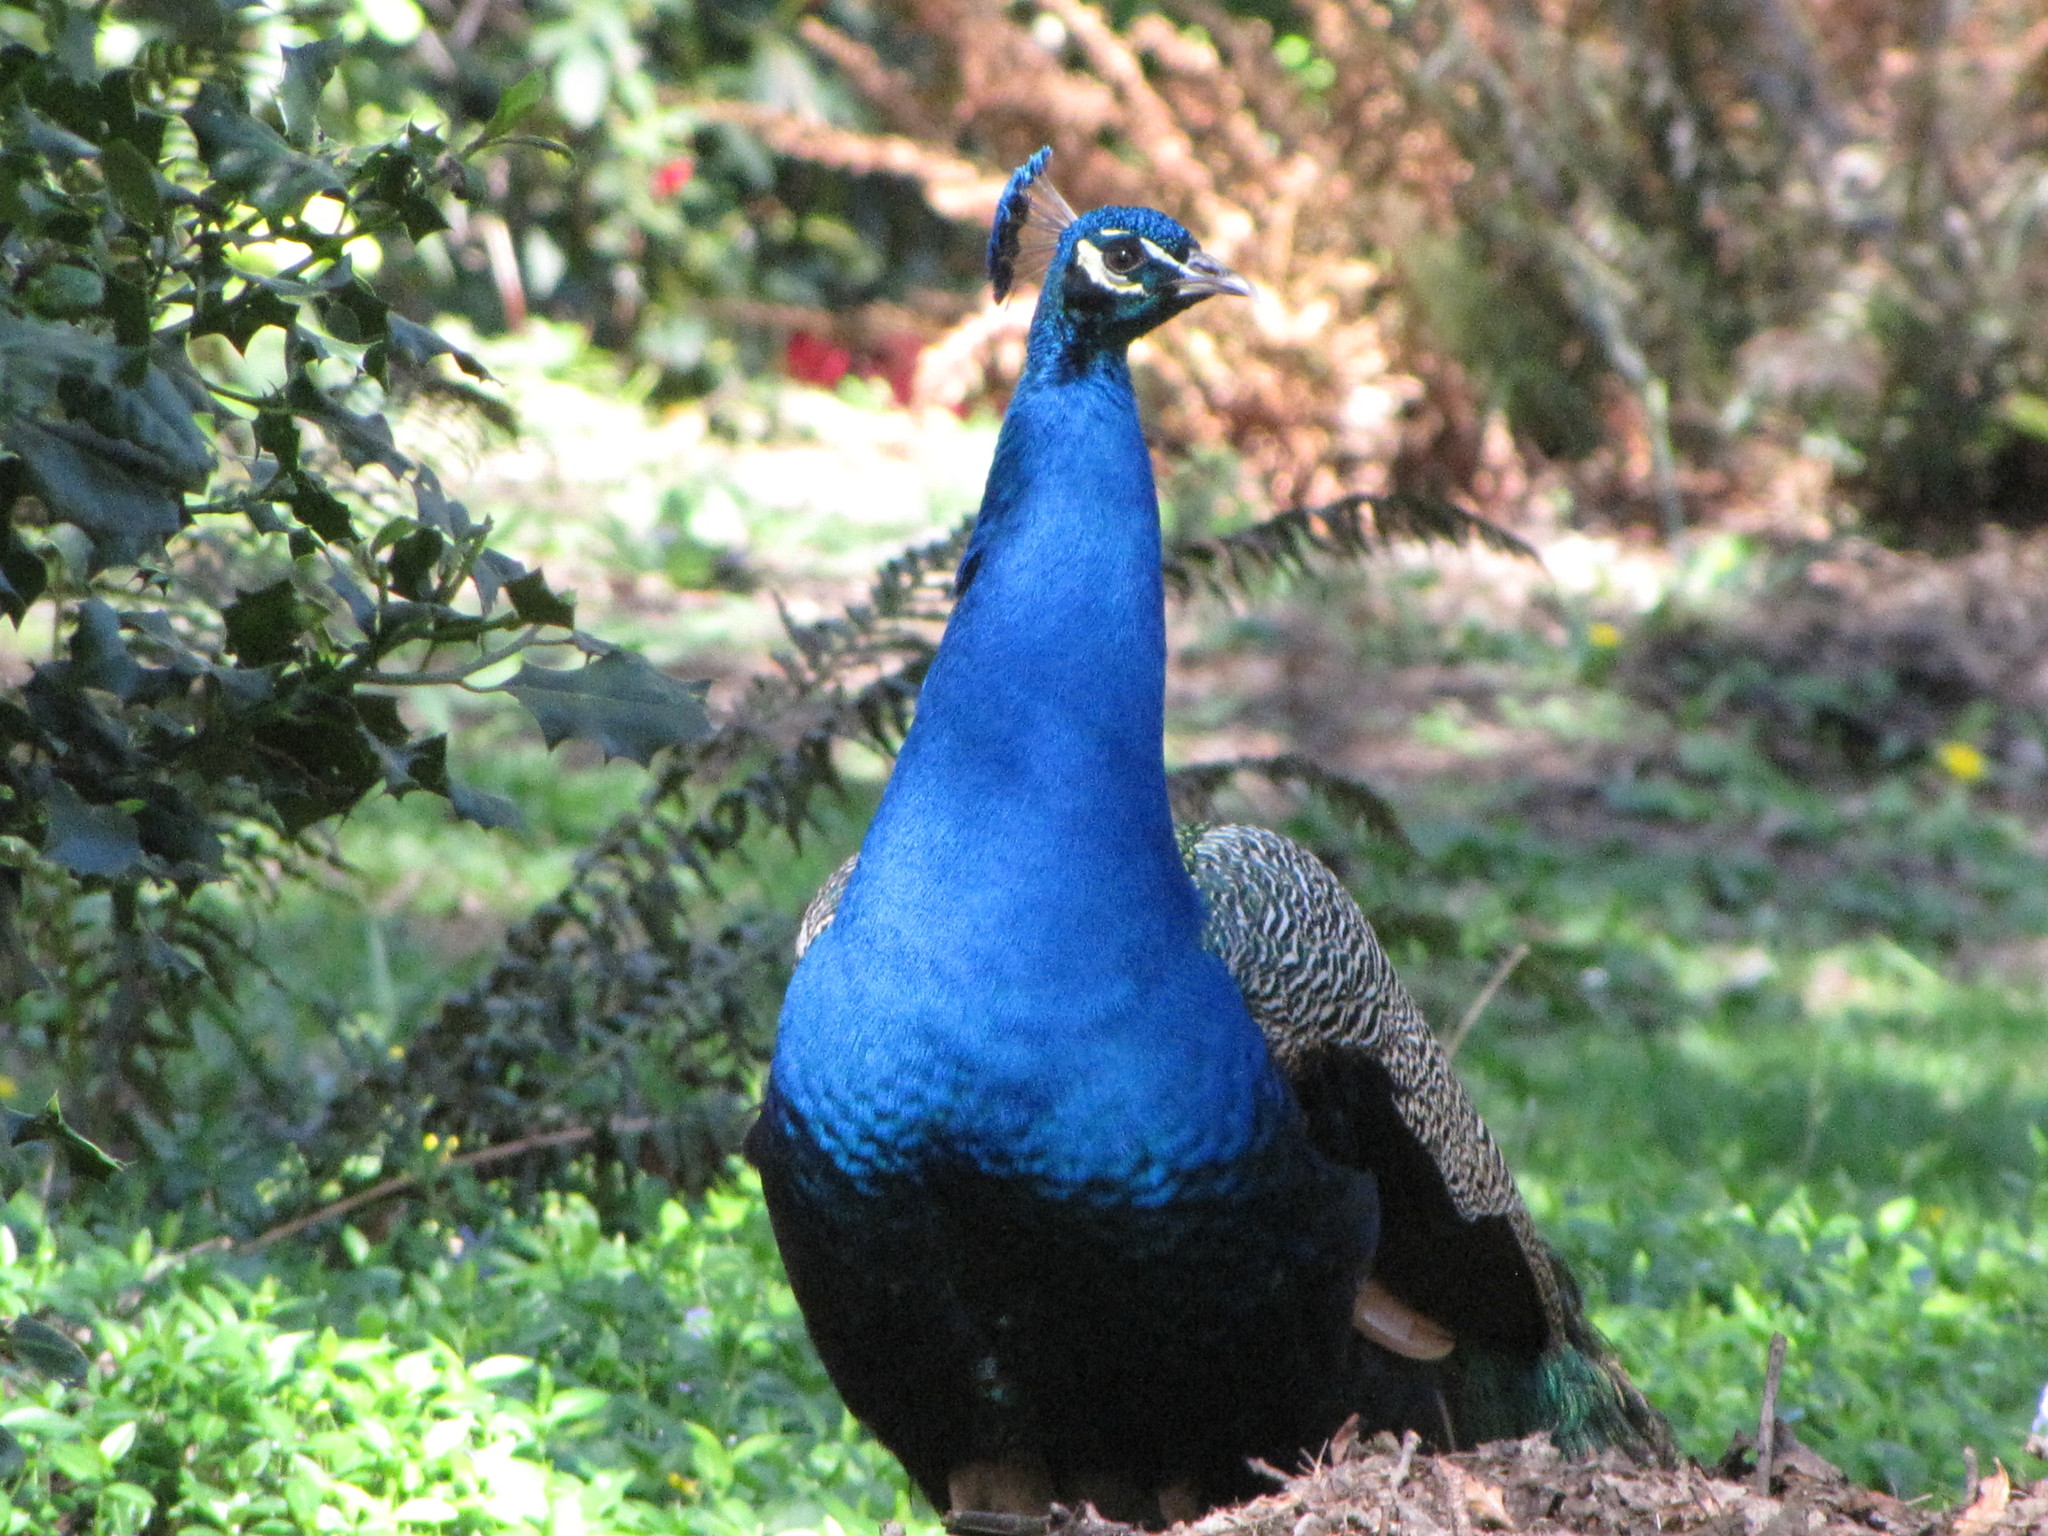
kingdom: Animalia
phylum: Chordata
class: Aves
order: Galliformes
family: Phasianidae
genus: Pavo
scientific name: Pavo cristatus
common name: Indian peafowl
